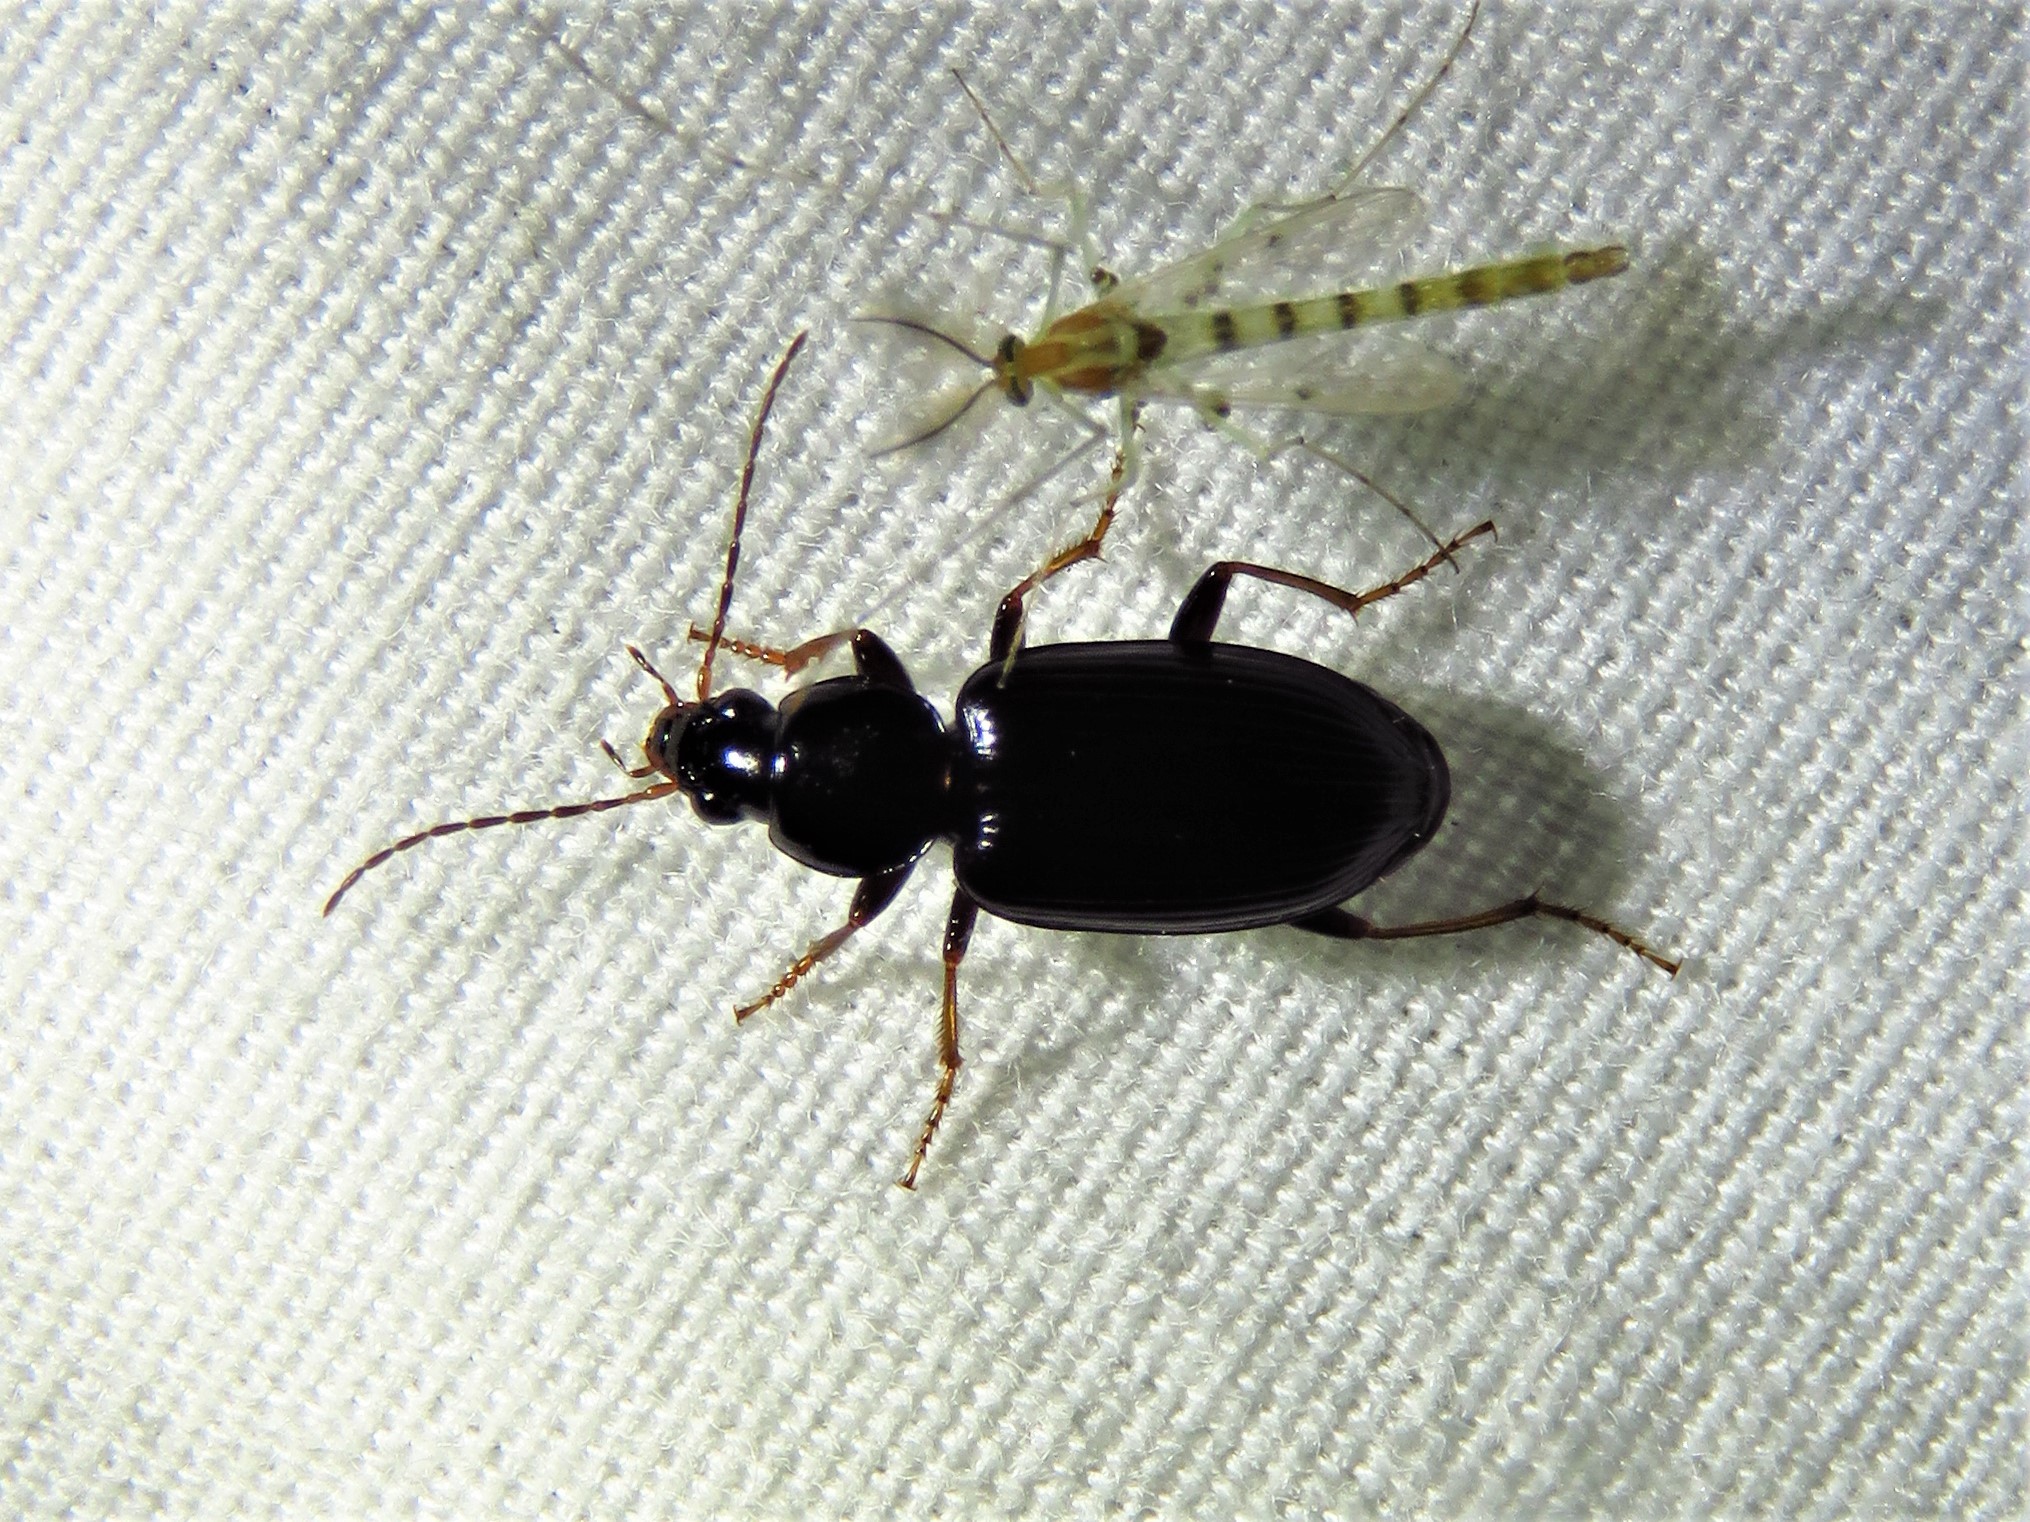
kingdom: Animalia
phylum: Arthropoda
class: Insecta
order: Coleoptera
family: Carabidae
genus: Agonum
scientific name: Agonum punctiforme
